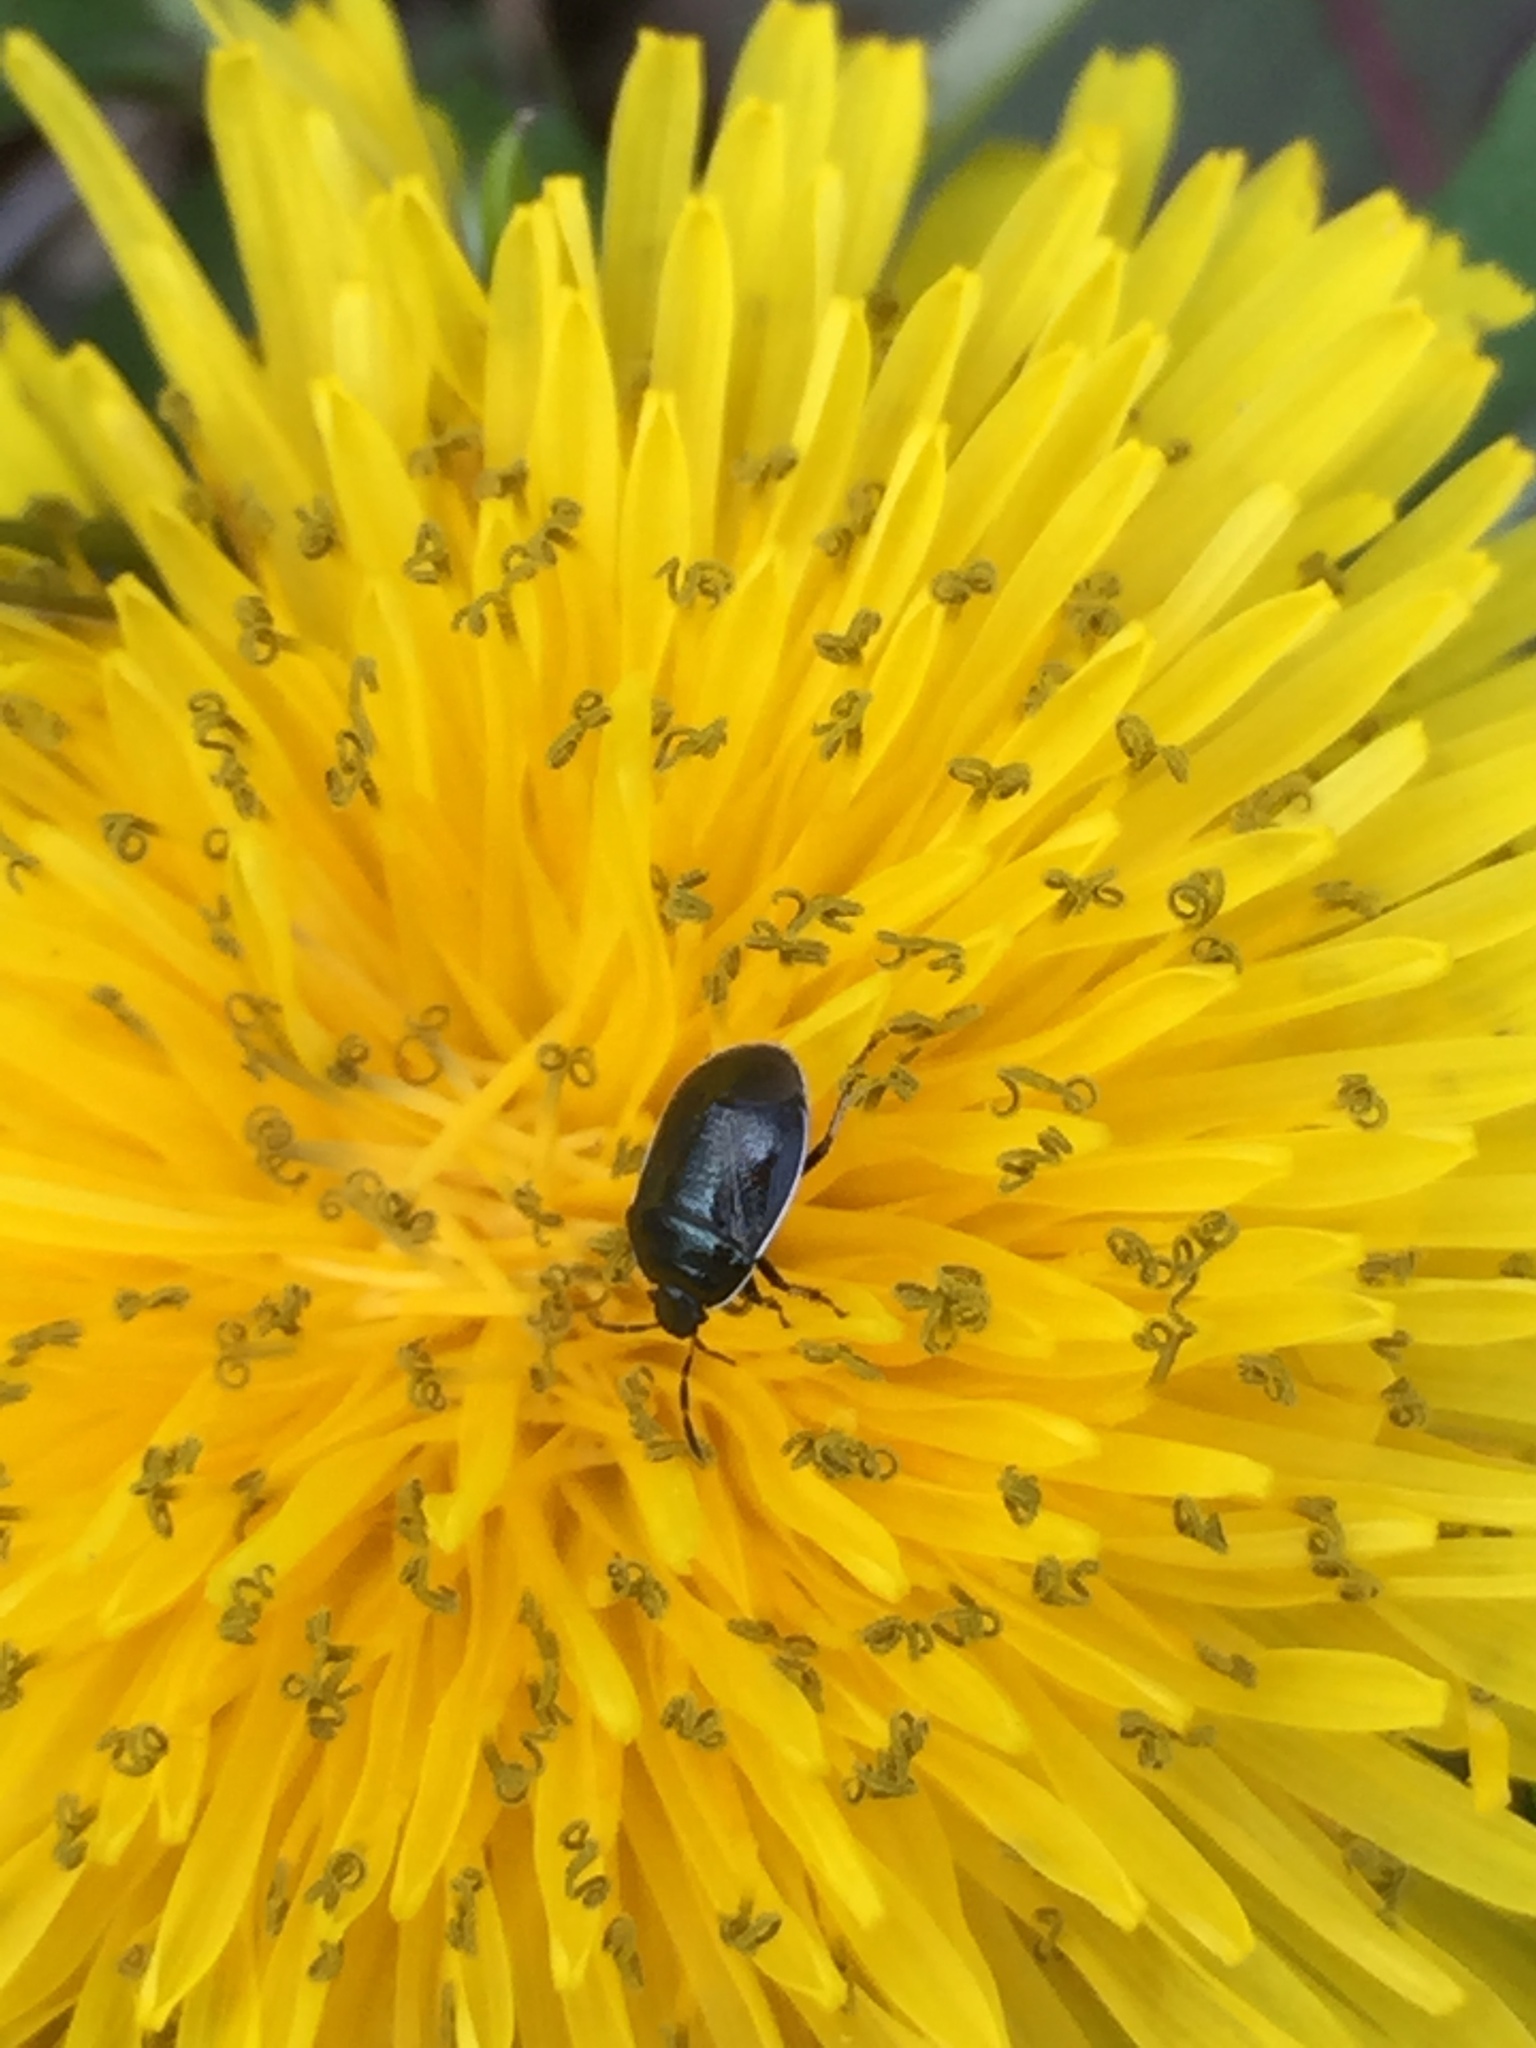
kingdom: Animalia
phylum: Arthropoda
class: Insecta
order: Hemiptera
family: Cydnidae
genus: Sehirus
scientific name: Sehirus cinctus
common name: White-margined burrower bug
